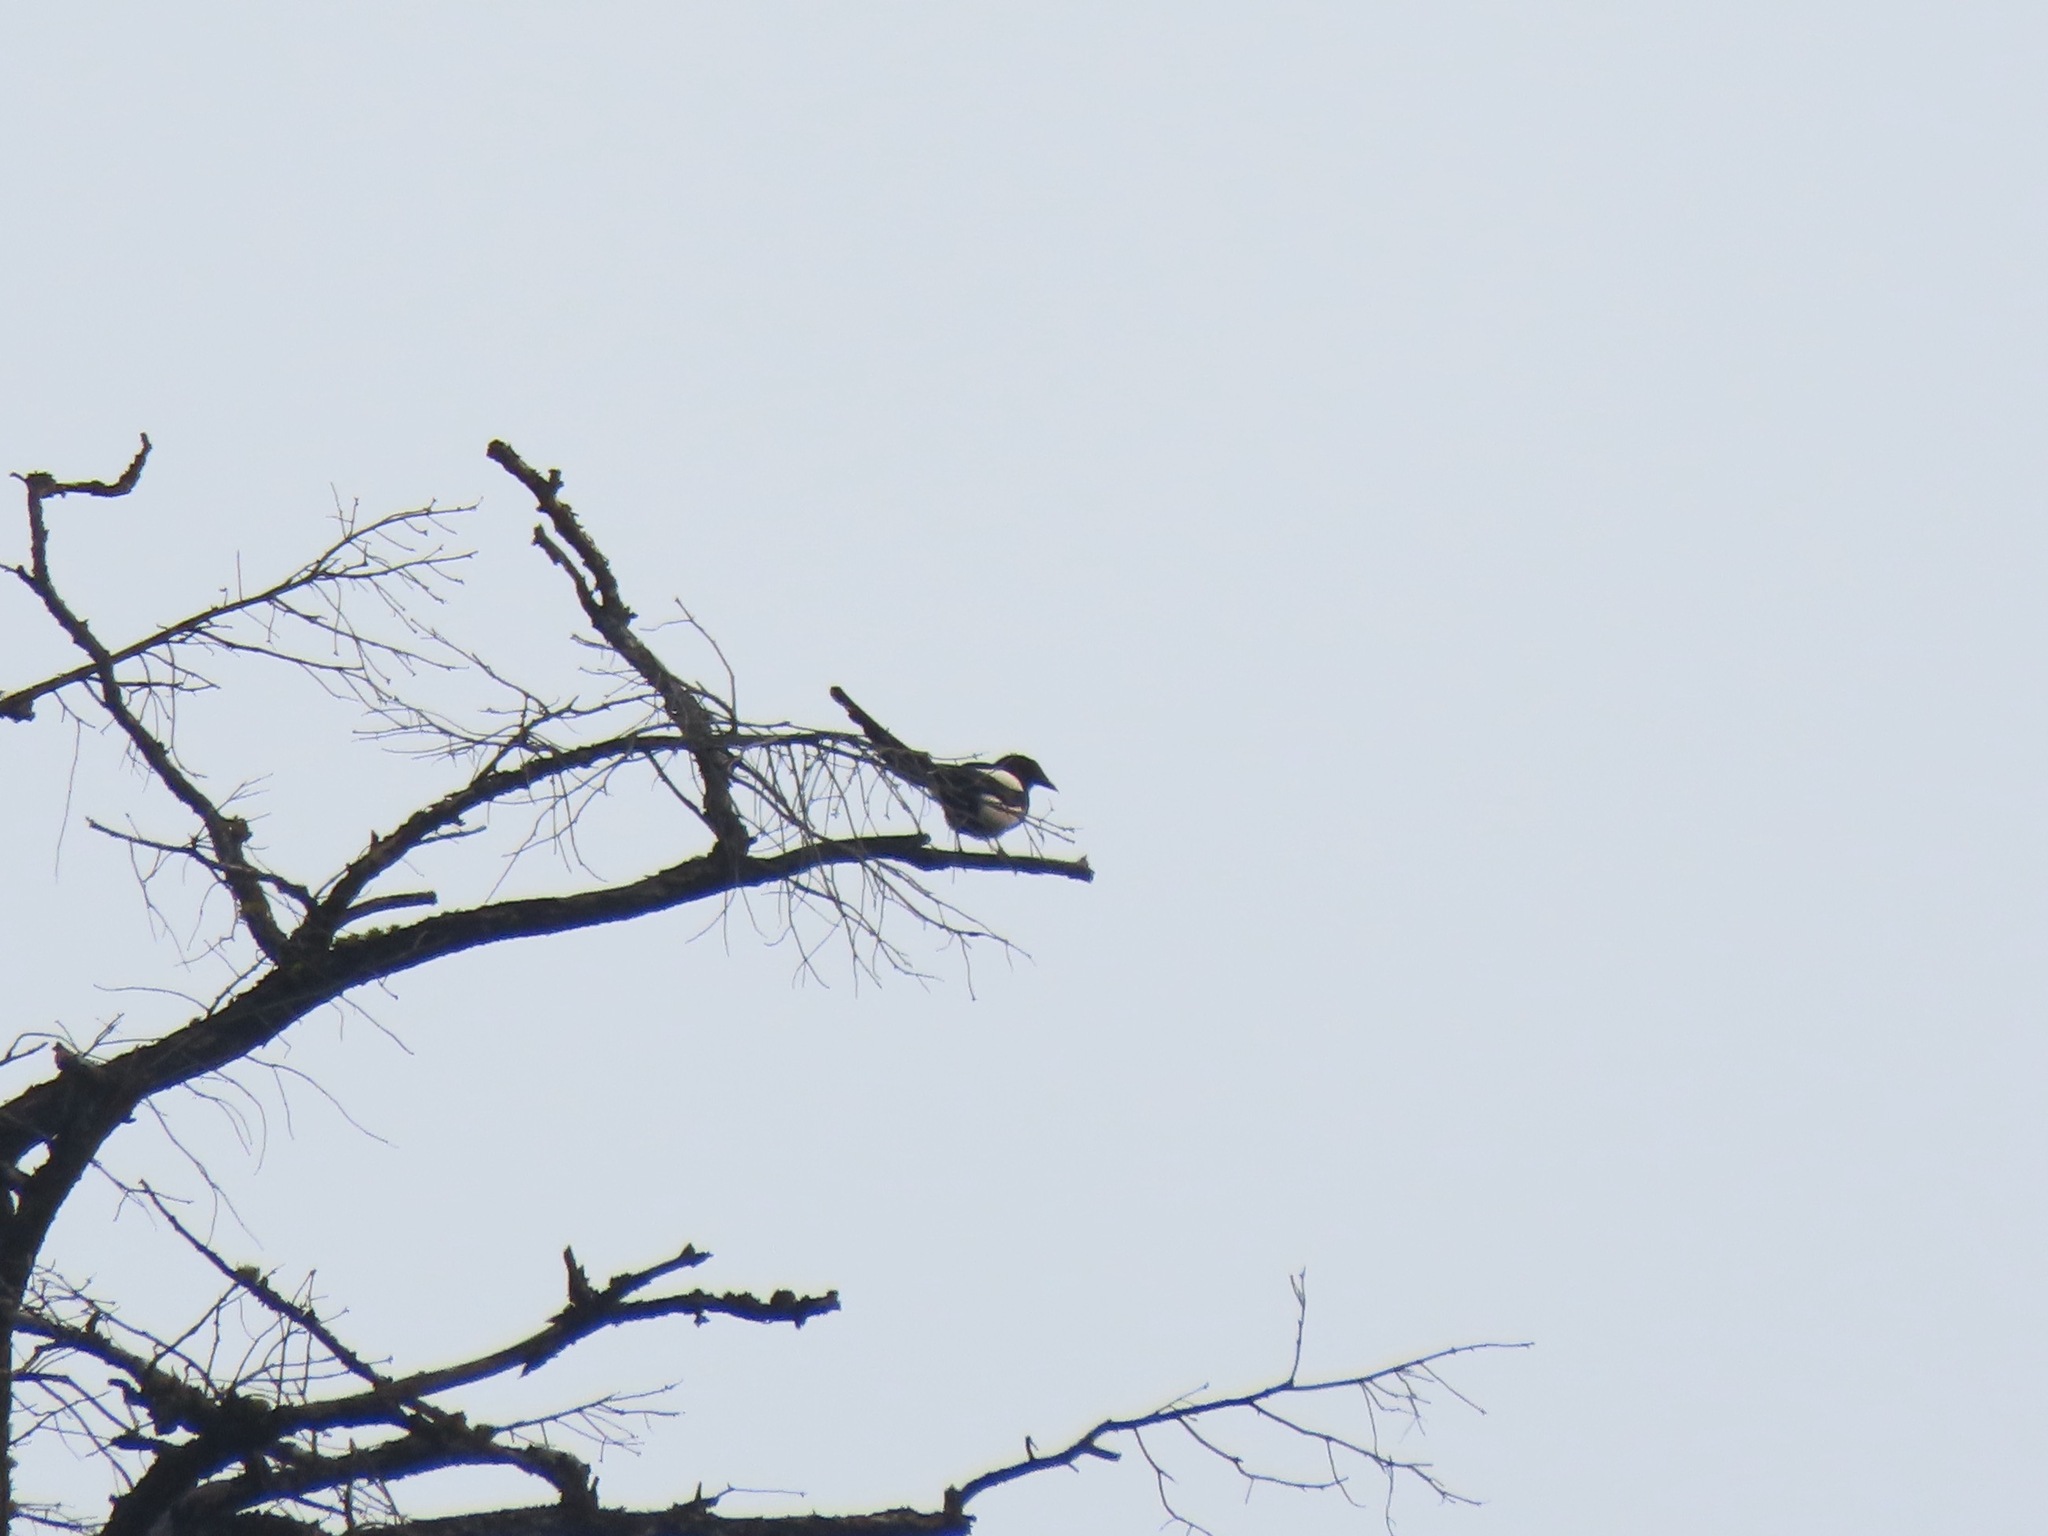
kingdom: Animalia
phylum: Chordata
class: Aves
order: Passeriformes
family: Corvidae
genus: Pica
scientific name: Pica hudsonia
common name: Black-billed magpie
